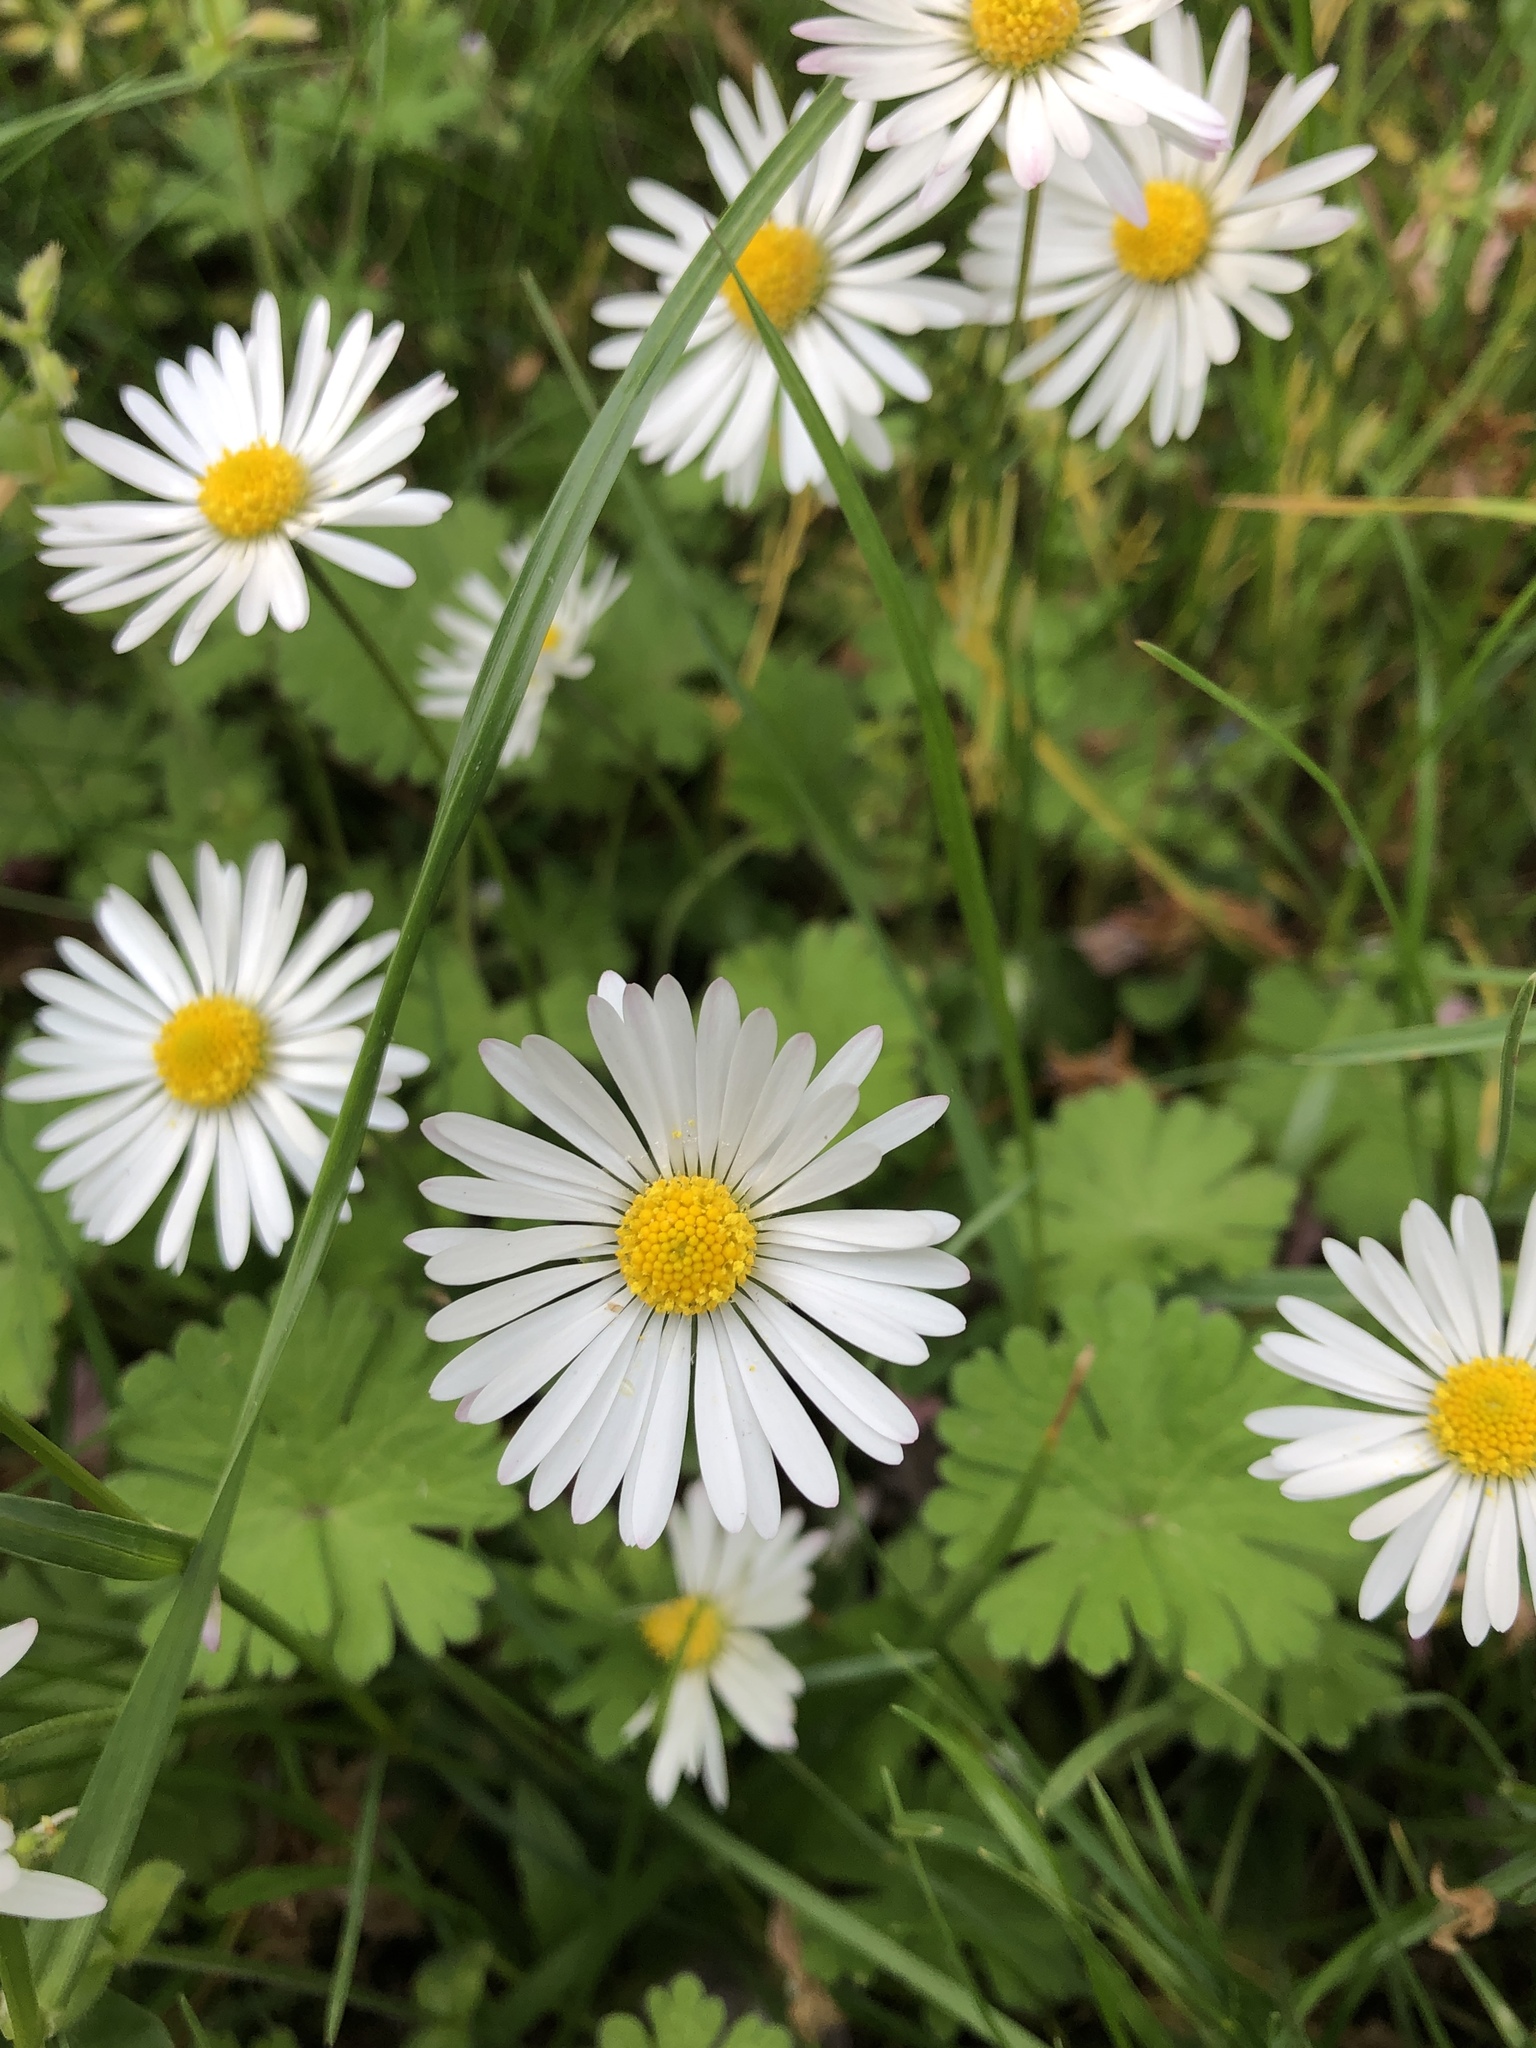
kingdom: Plantae
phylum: Tracheophyta
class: Magnoliopsida
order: Asterales
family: Asteraceae
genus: Bellis
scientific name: Bellis perennis
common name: Lawndaisy
